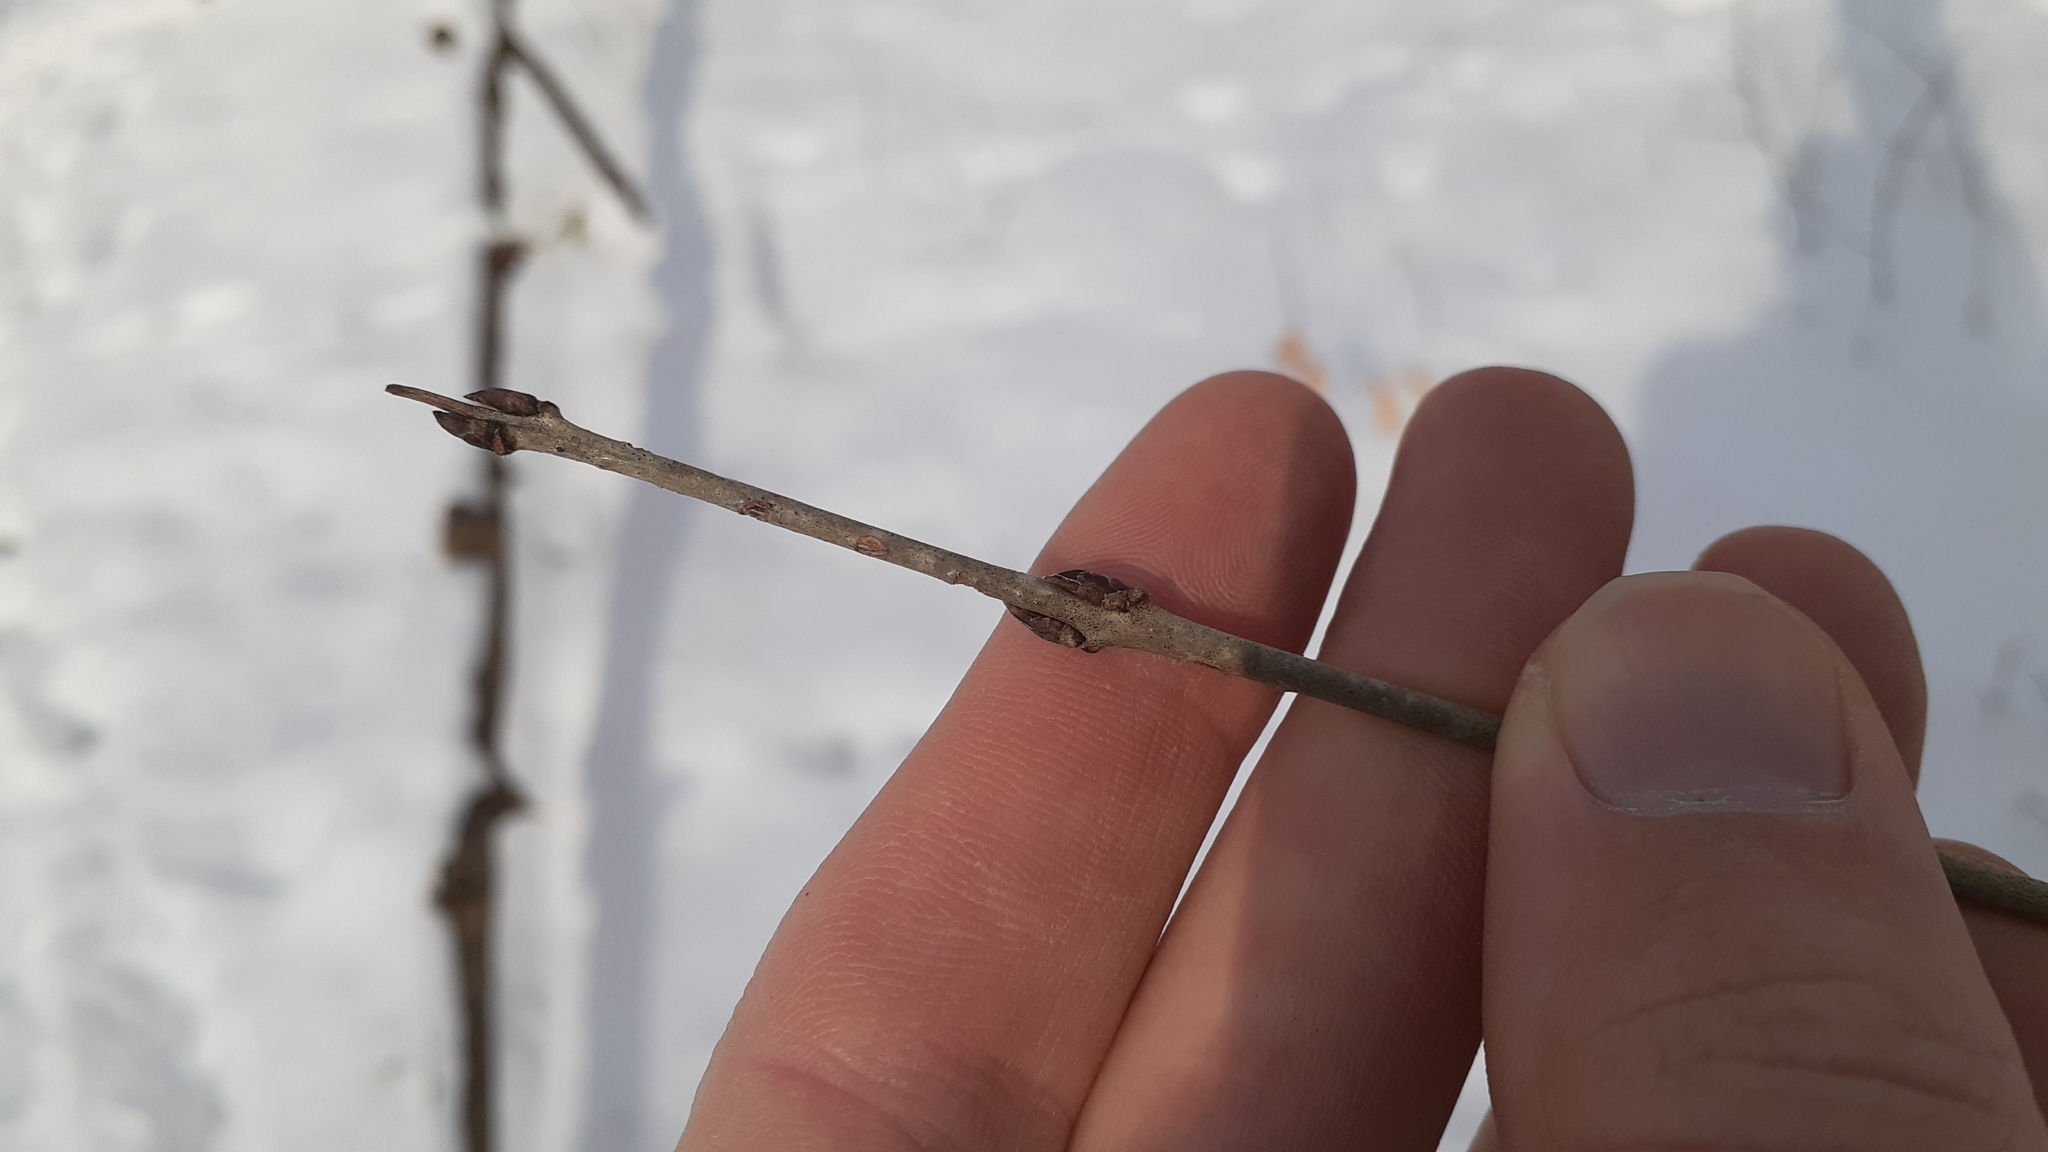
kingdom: Plantae
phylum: Tracheophyta
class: Magnoliopsida
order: Rosales
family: Rhamnaceae
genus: Rhamnus
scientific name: Rhamnus cathartica
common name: Common buckthorn
